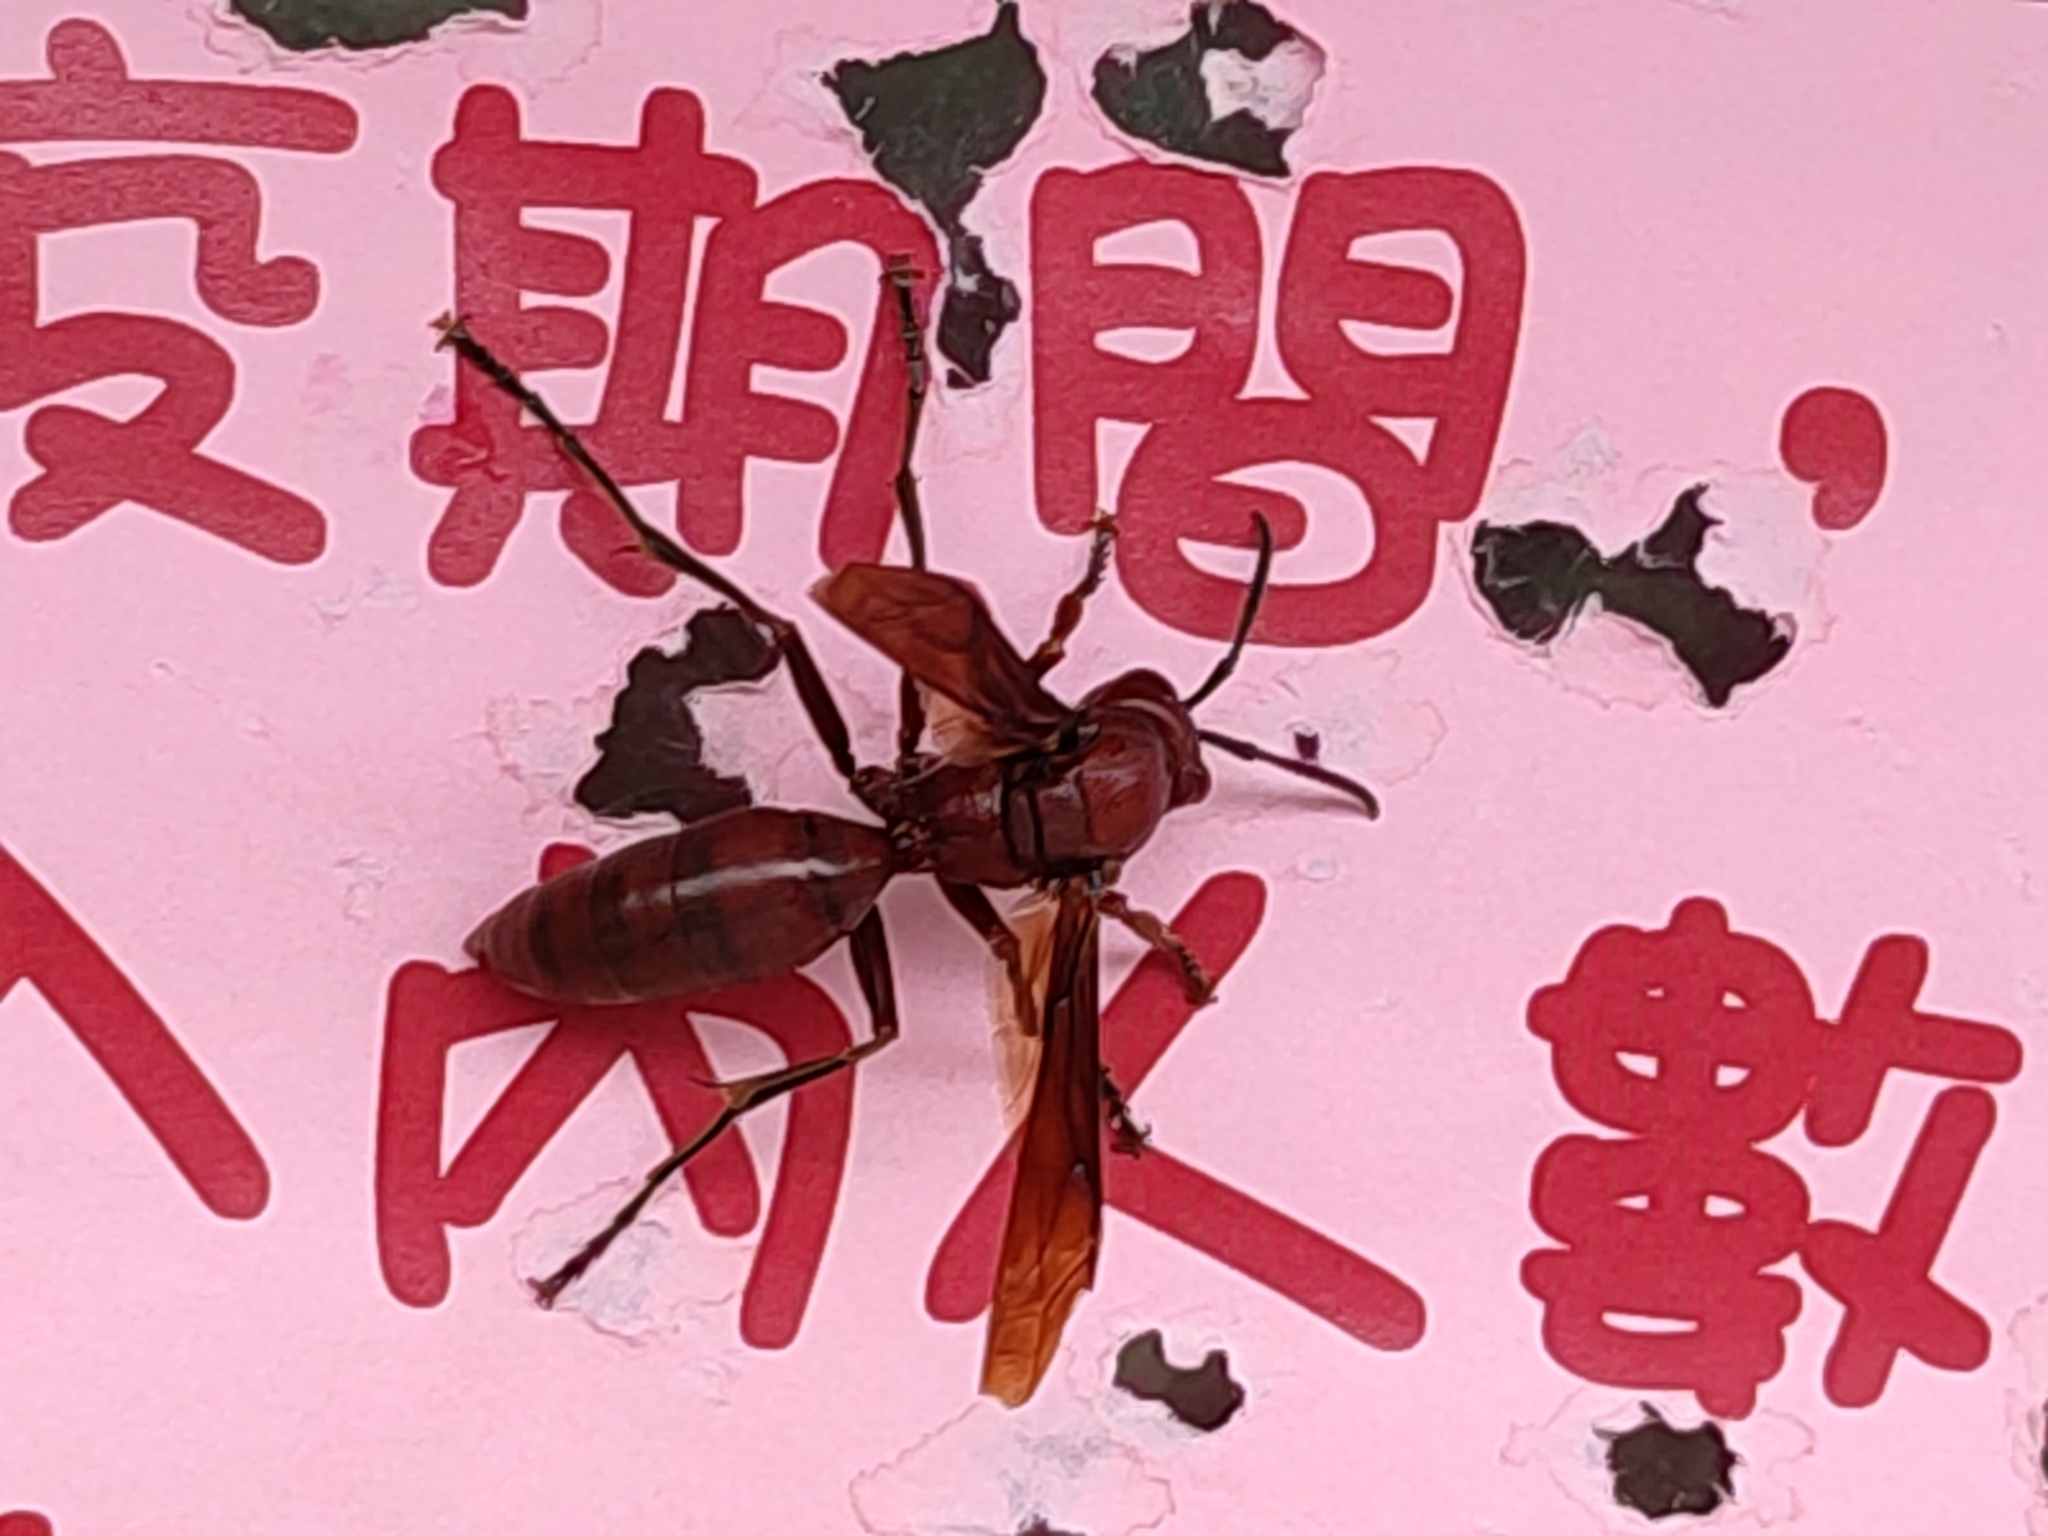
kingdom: Animalia
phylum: Arthropoda
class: Insecta
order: Hymenoptera
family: Eumenidae
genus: Polistes
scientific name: Polistes gigas
